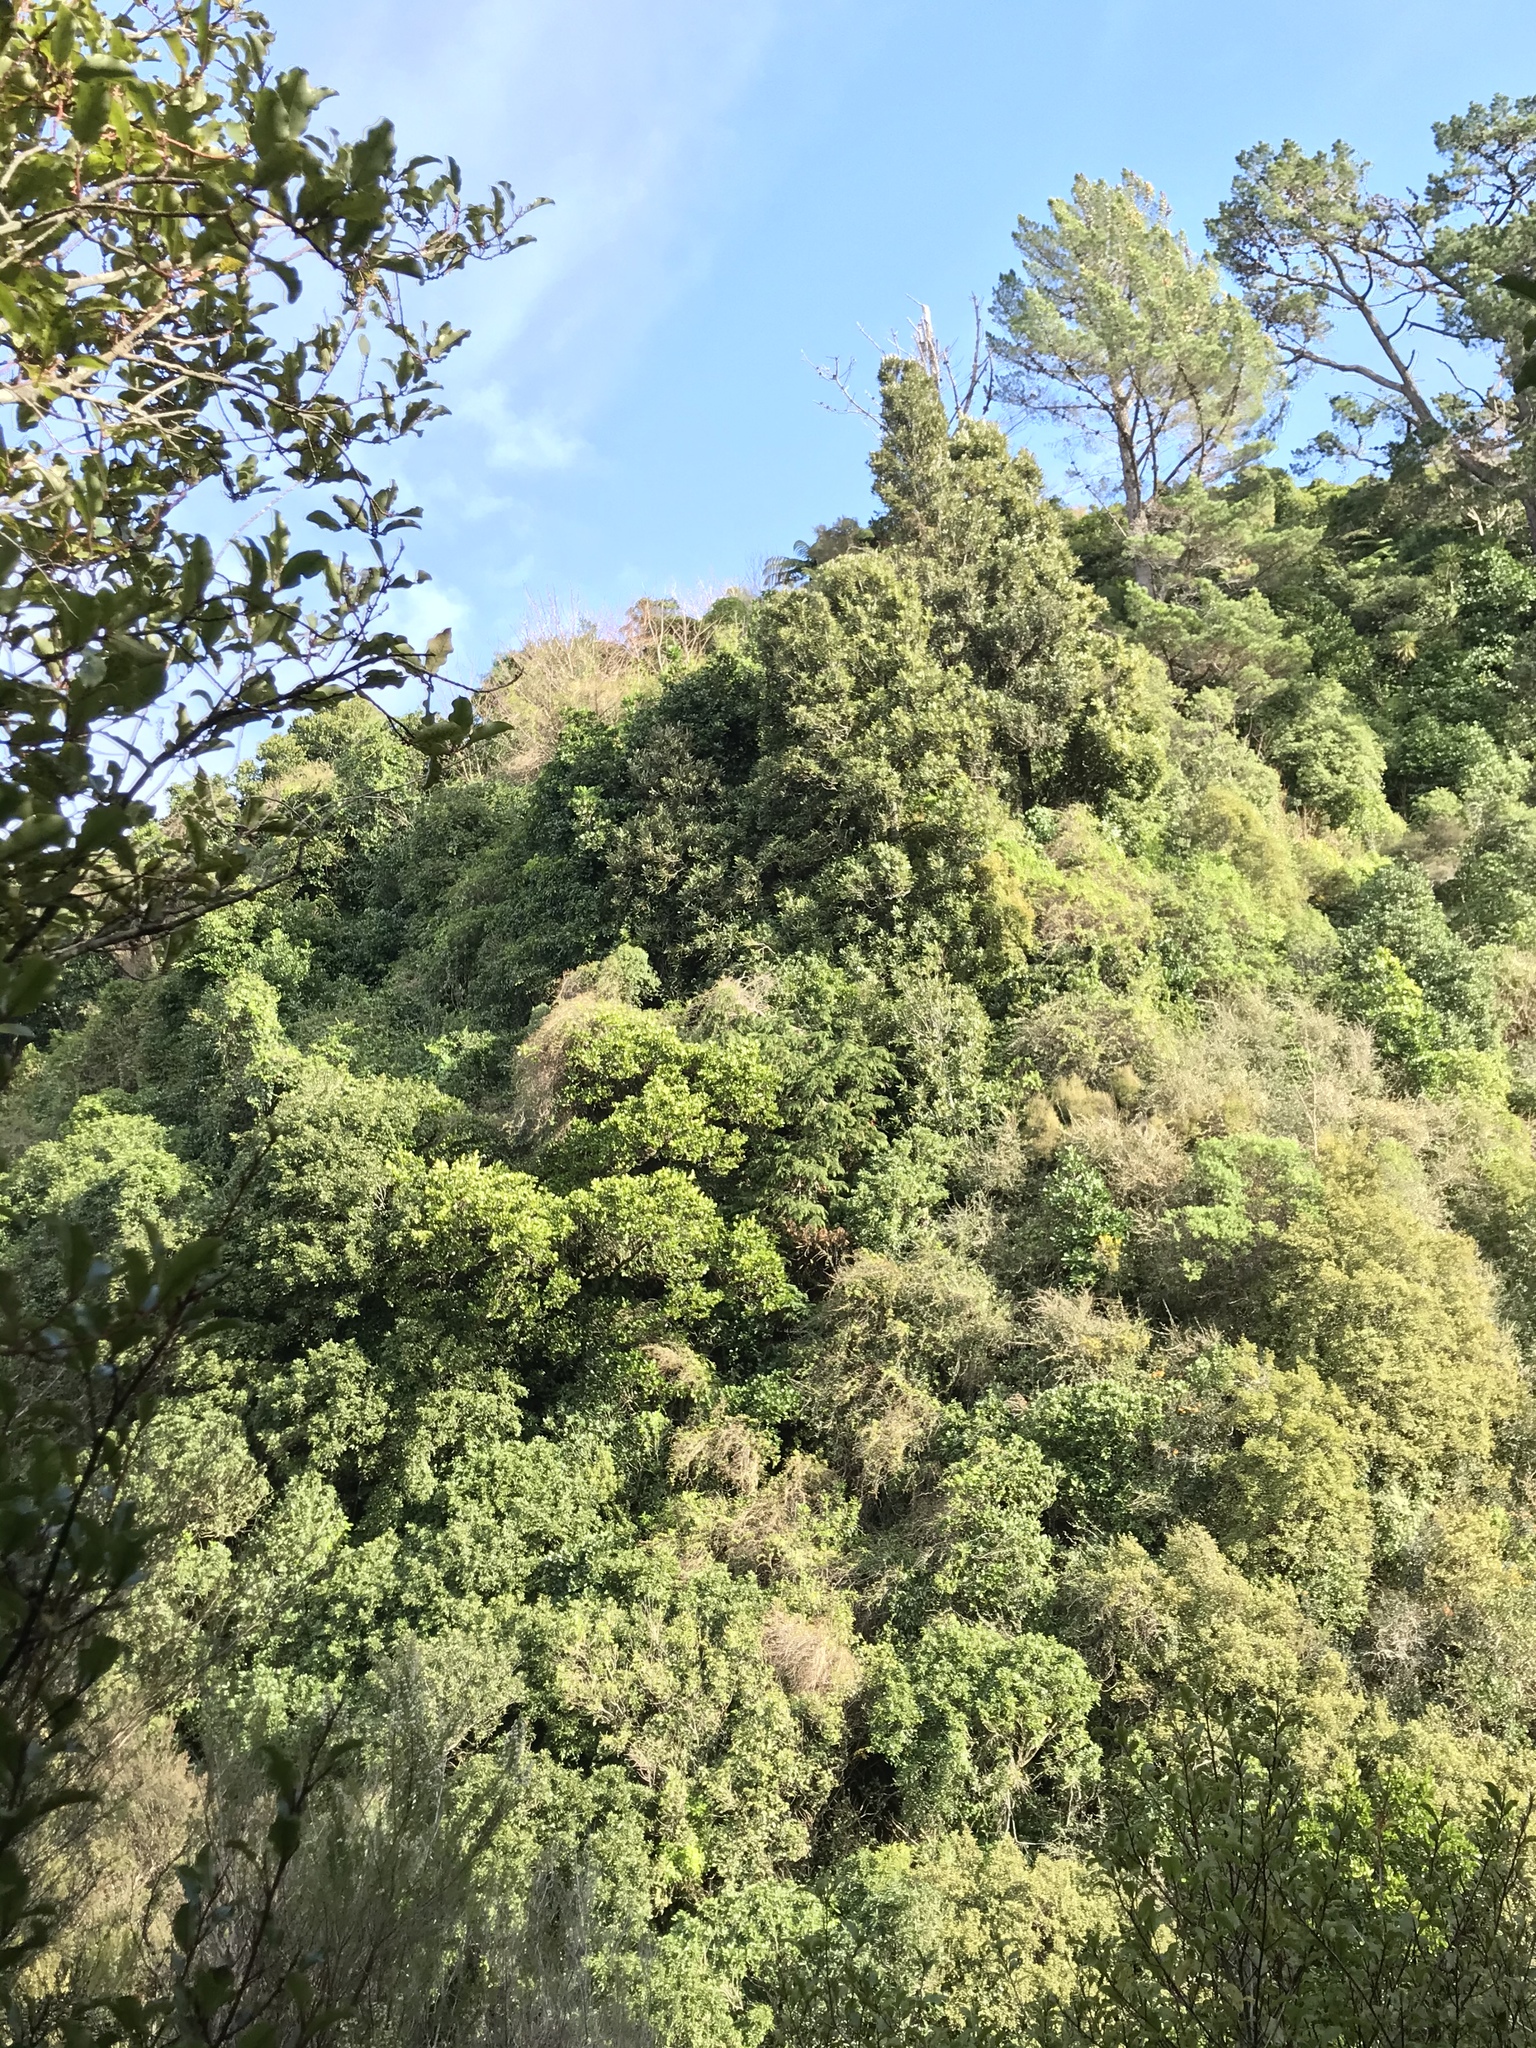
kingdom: Plantae
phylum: Tracheophyta
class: Magnoliopsida
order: Apiales
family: Griseliniaceae
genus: Griselinia
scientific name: Griselinia lucida
